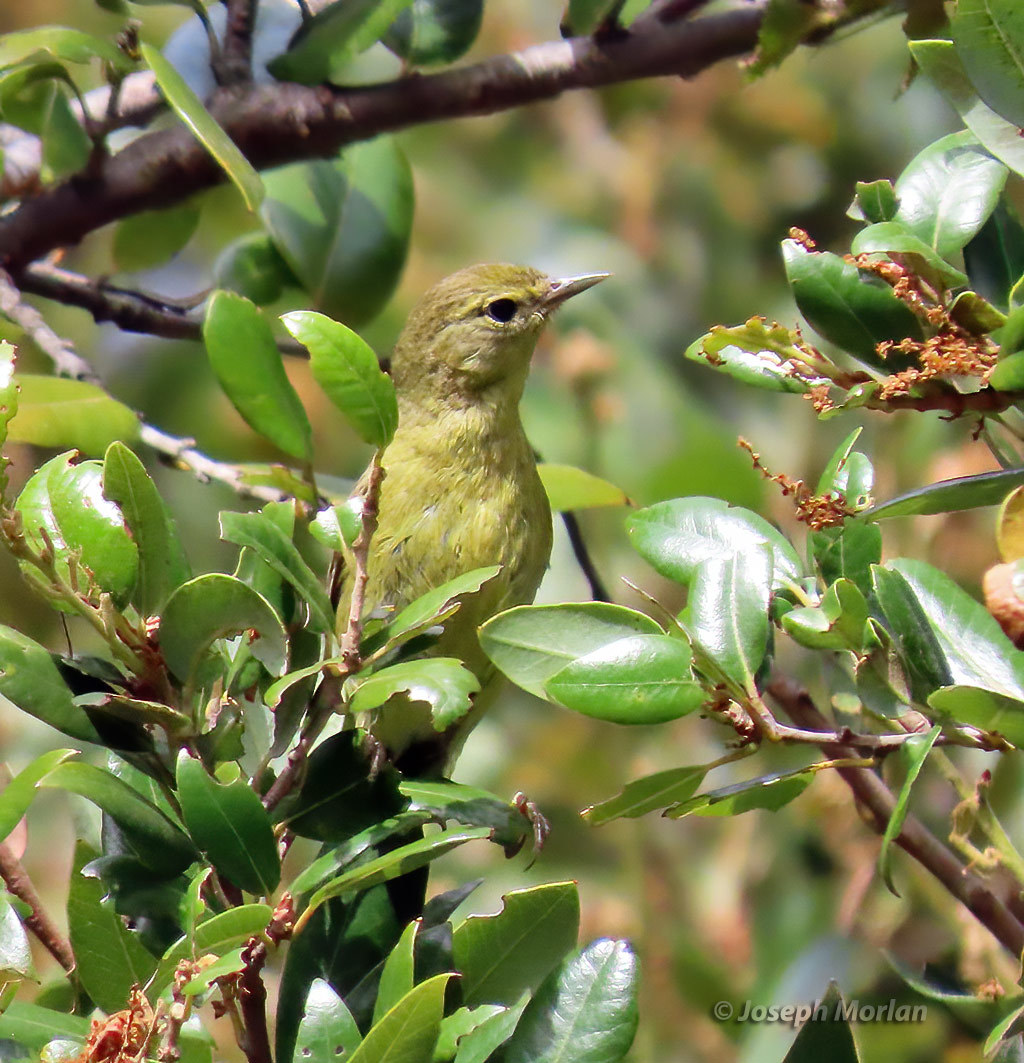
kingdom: Animalia
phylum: Chordata
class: Aves
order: Passeriformes
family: Parulidae
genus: Leiothlypis
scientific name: Leiothlypis celata
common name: Orange-crowned warbler
